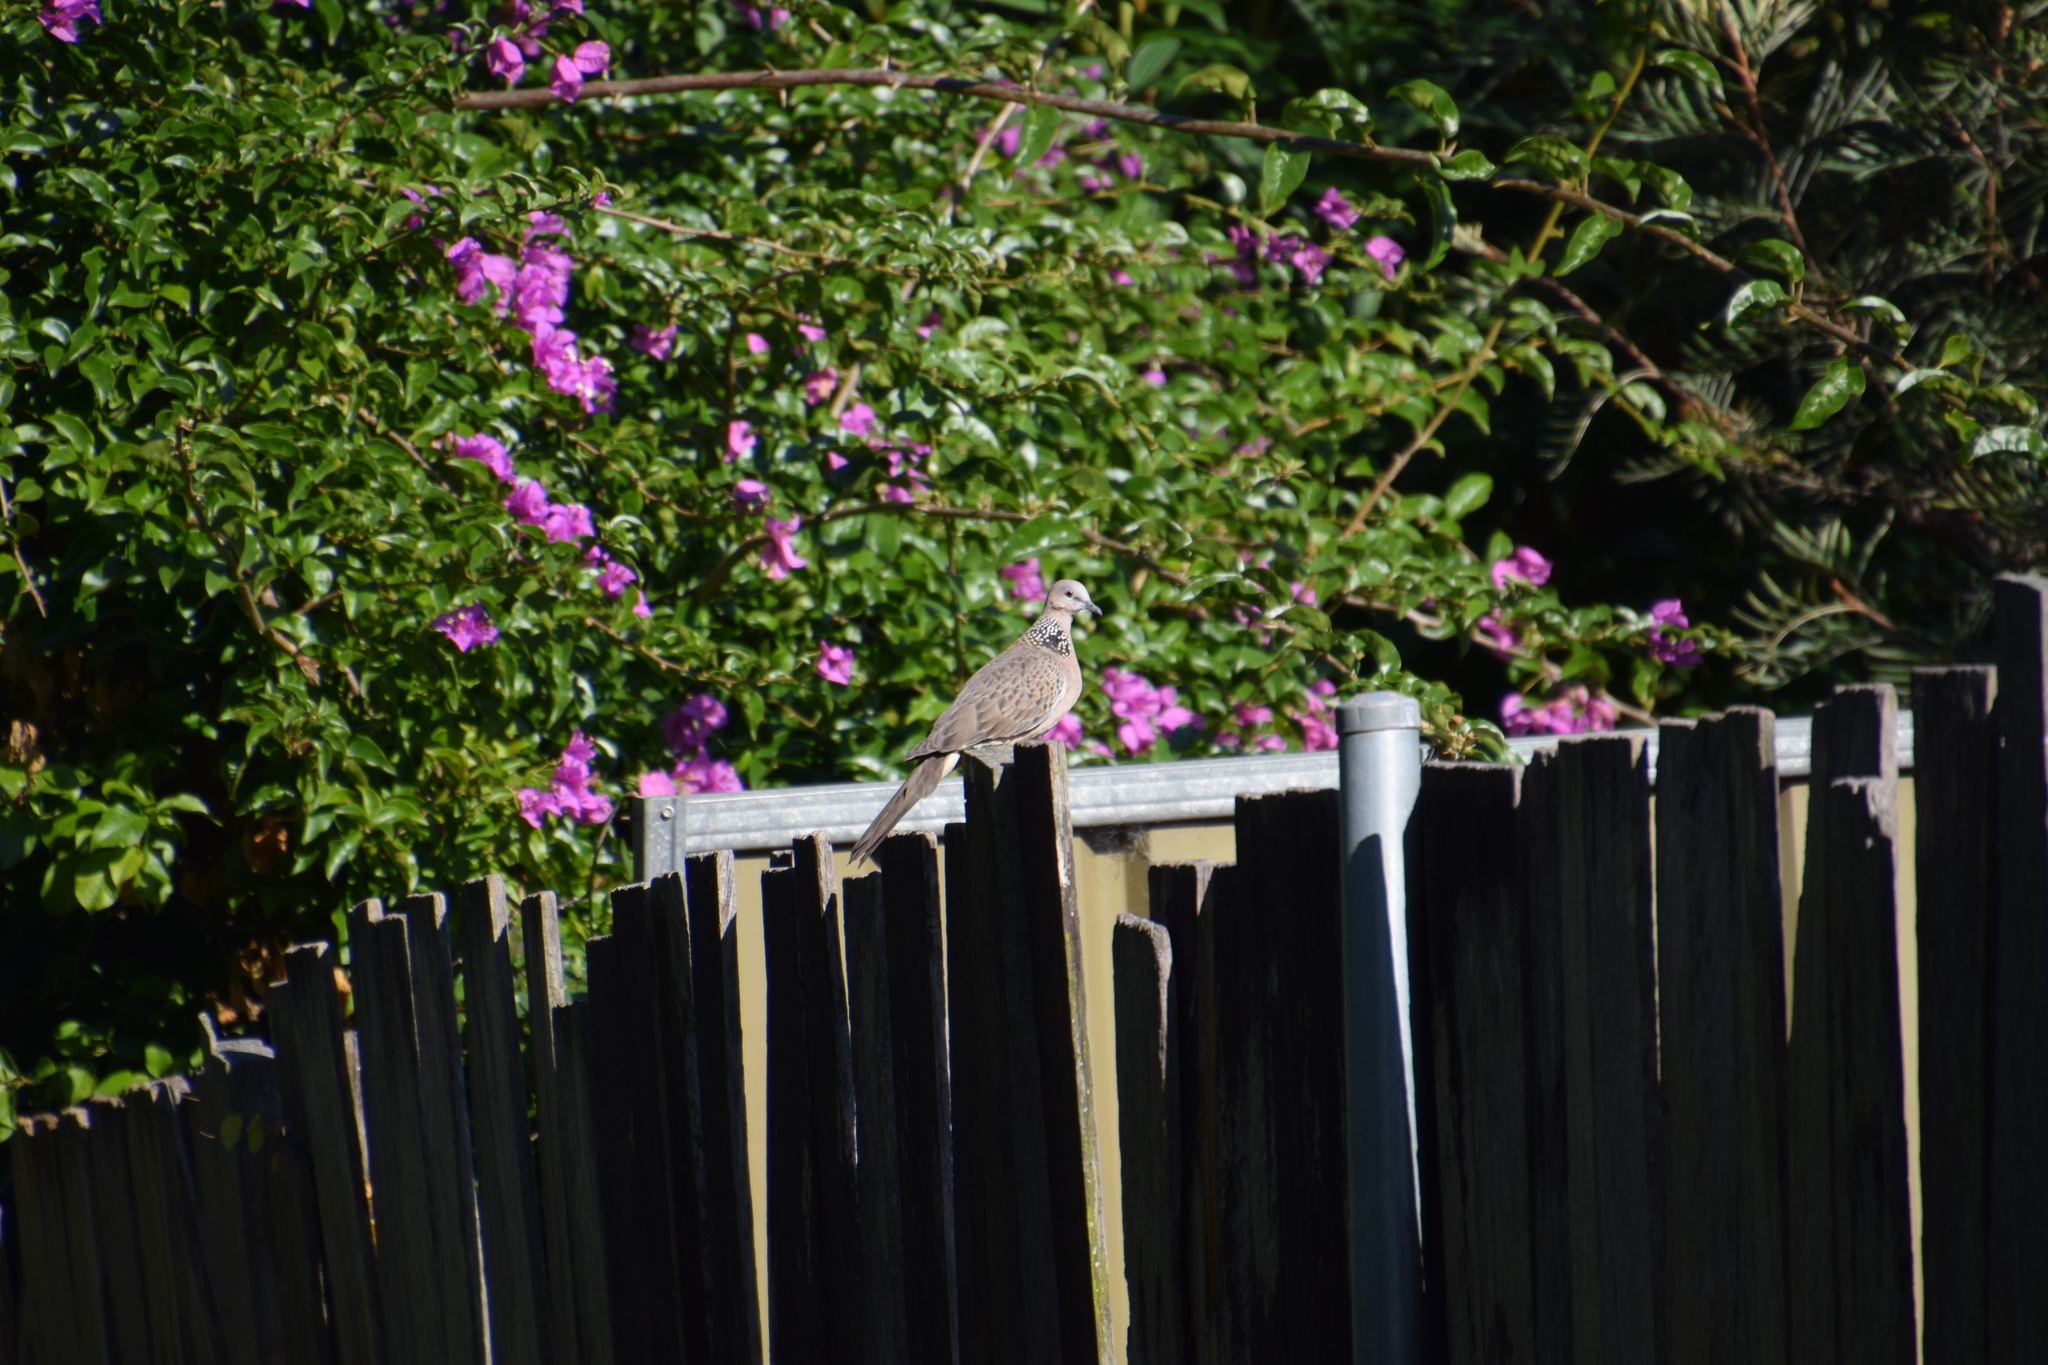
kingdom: Animalia
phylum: Chordata
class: Aves
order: Columbiformes
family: Columbidae
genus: Spilopelia
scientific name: Spilopelia chinensis
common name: Spotted dove
